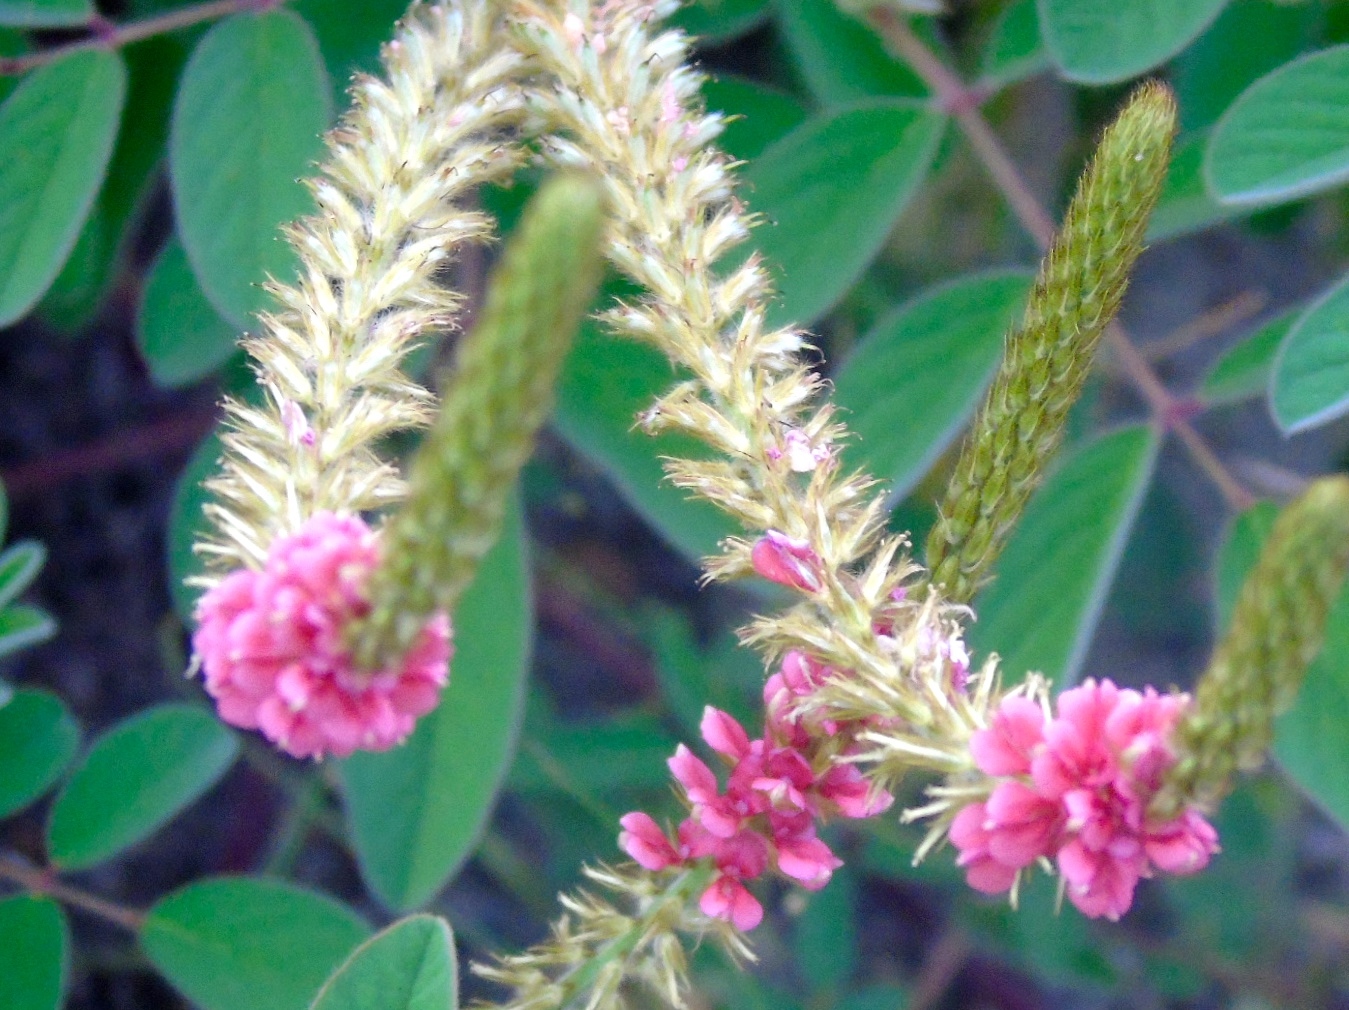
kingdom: Plantae
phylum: Tracheophyta
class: Magnoliopsida
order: Fabales
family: Fabaceae
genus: Indigofera
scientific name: Indigofera hirsuta
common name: Hairy indigo
